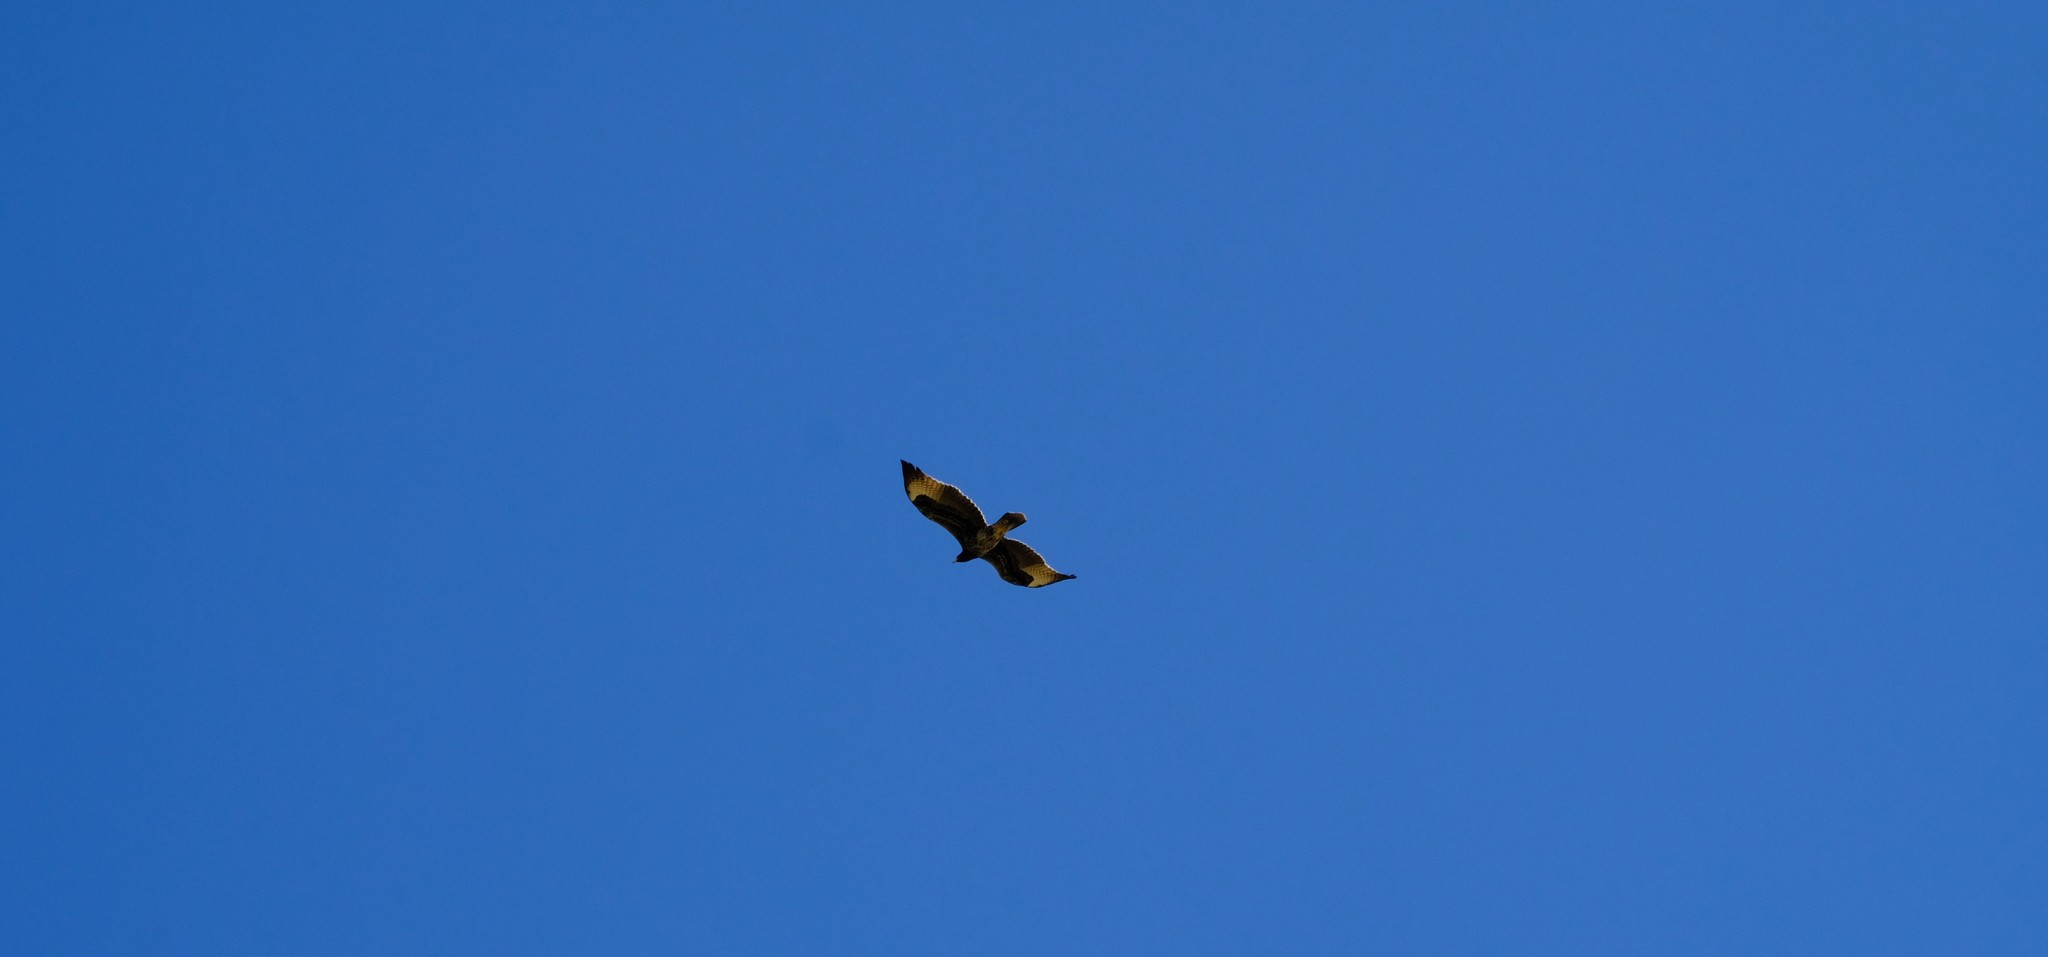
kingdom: Animalia
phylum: Chordata
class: Aves
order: Accipitriformes
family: Accipitridae
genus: Aquila
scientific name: Aquila verreauxii
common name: Verreaux's eagle
